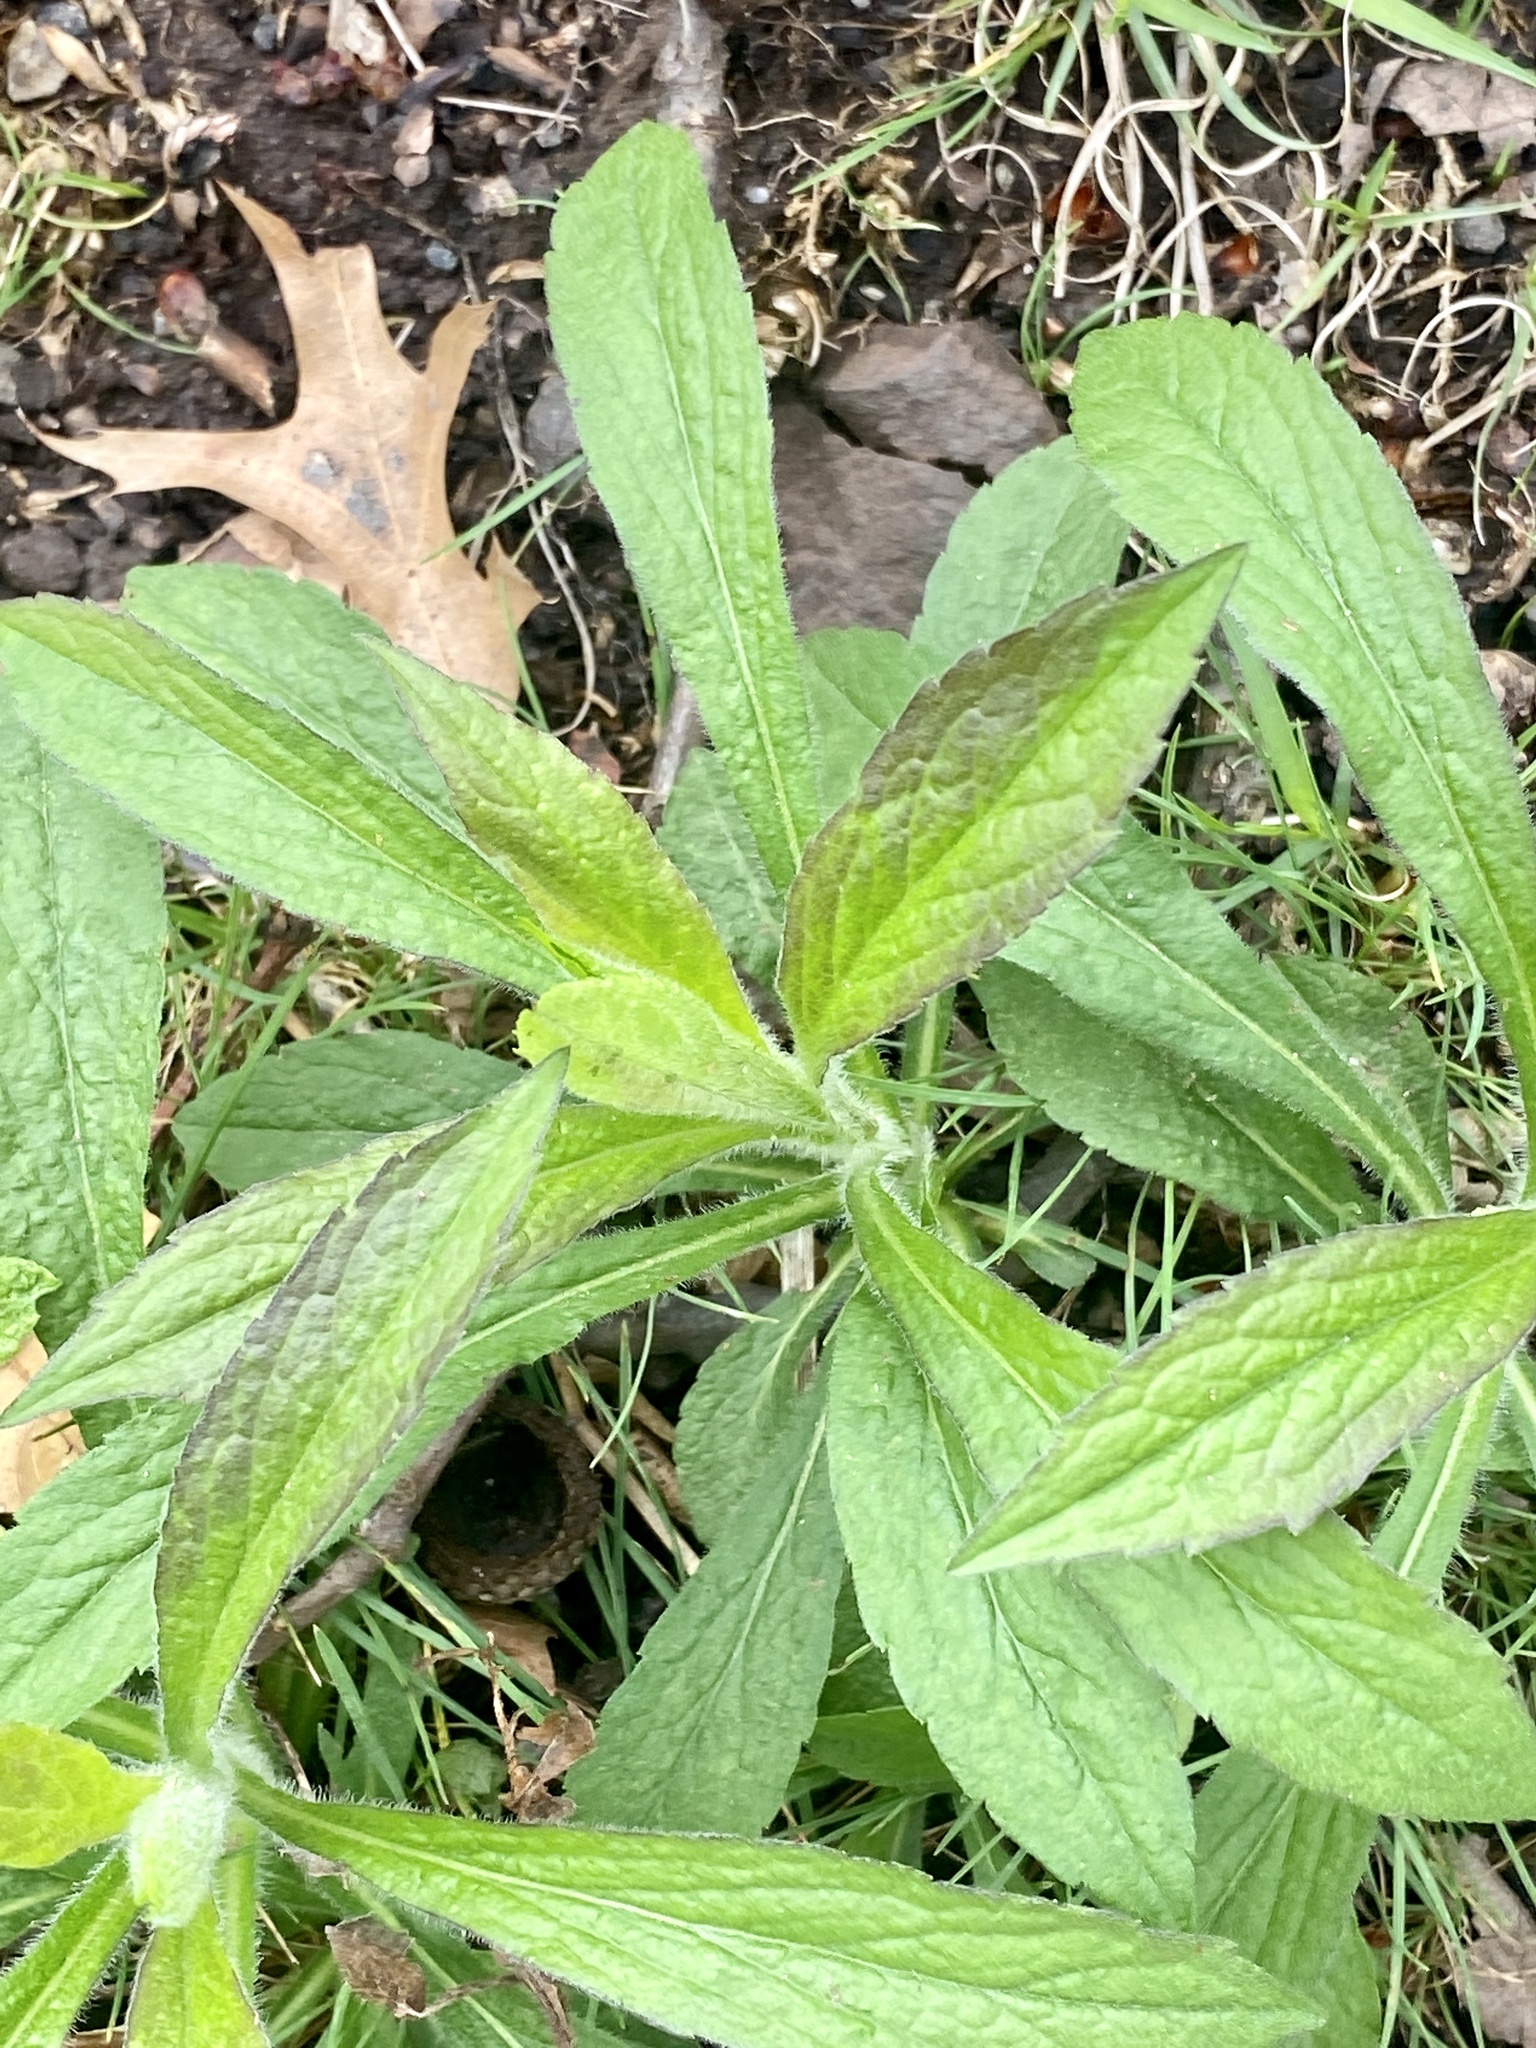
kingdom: Plantae
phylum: Tracheophyta
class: Magnoliopsida
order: Asterales
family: Asteraceae
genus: Solidago
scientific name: Solidago rugosa
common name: Rough-stemmed goldenrod
